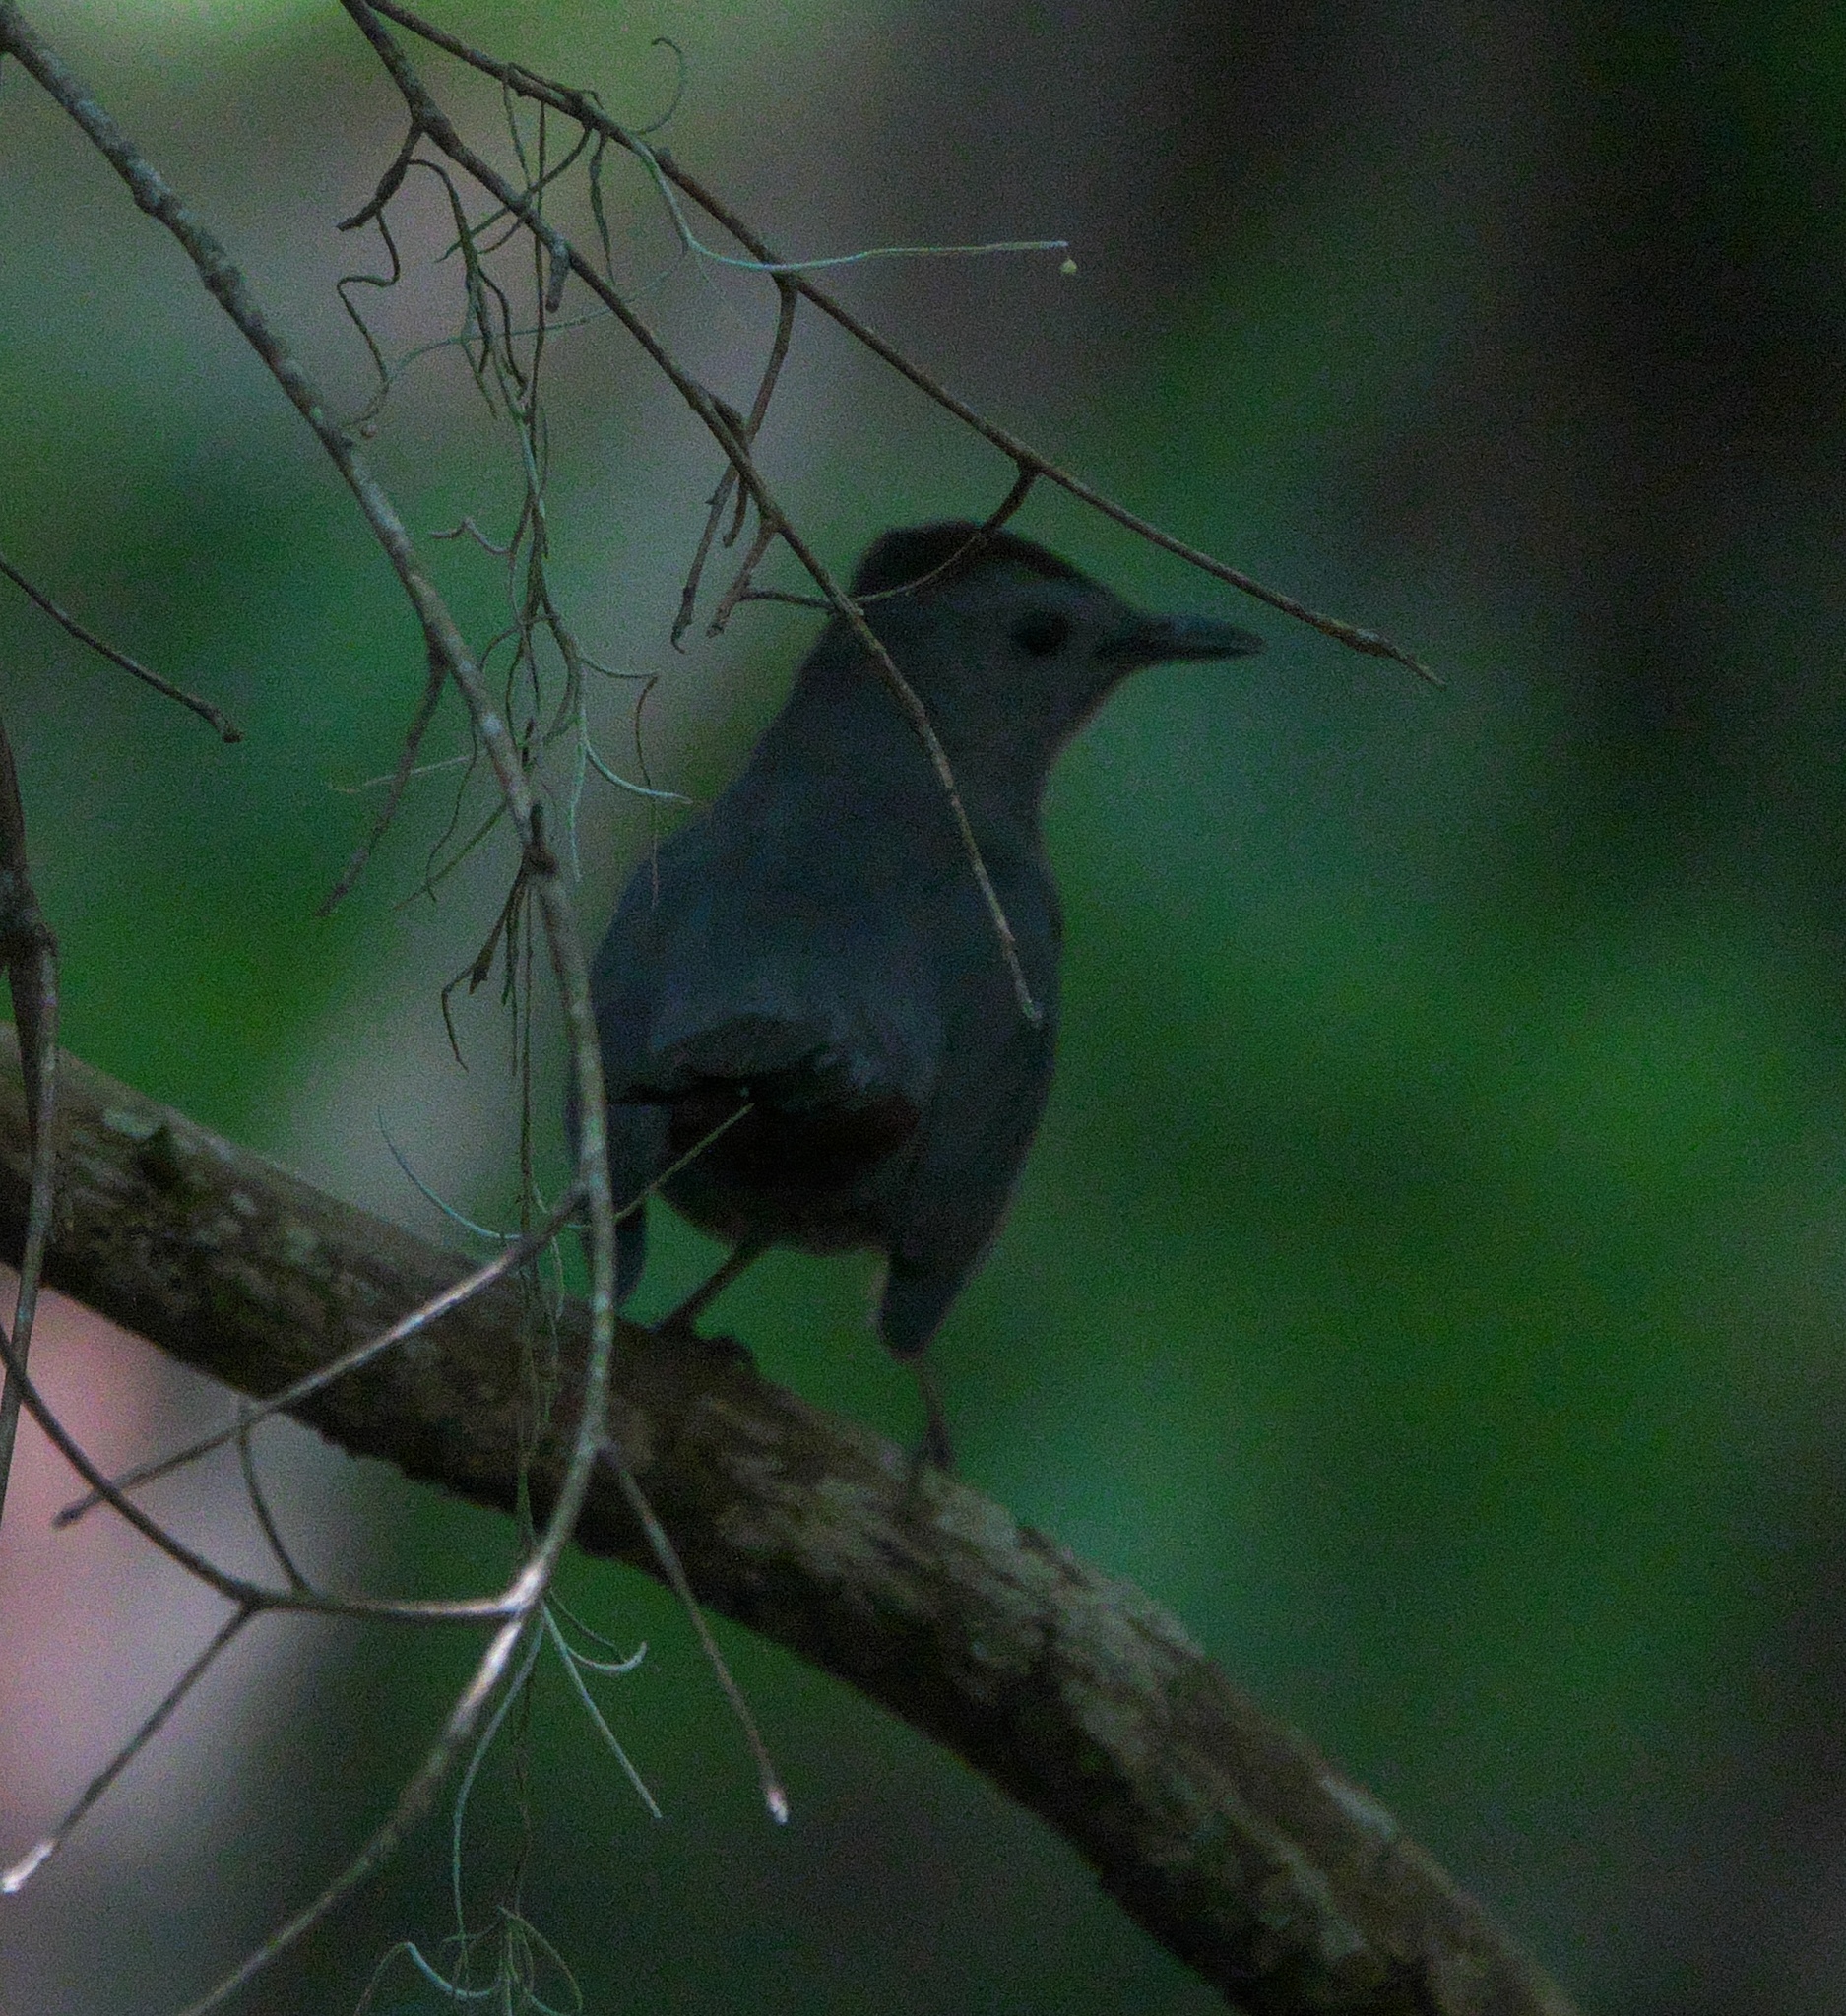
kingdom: Animalia
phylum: Chordata
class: Aves
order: Passeriformes
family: Mimidae
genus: Dumetella
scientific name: Dumetella carolinensis
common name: Gray catbird
